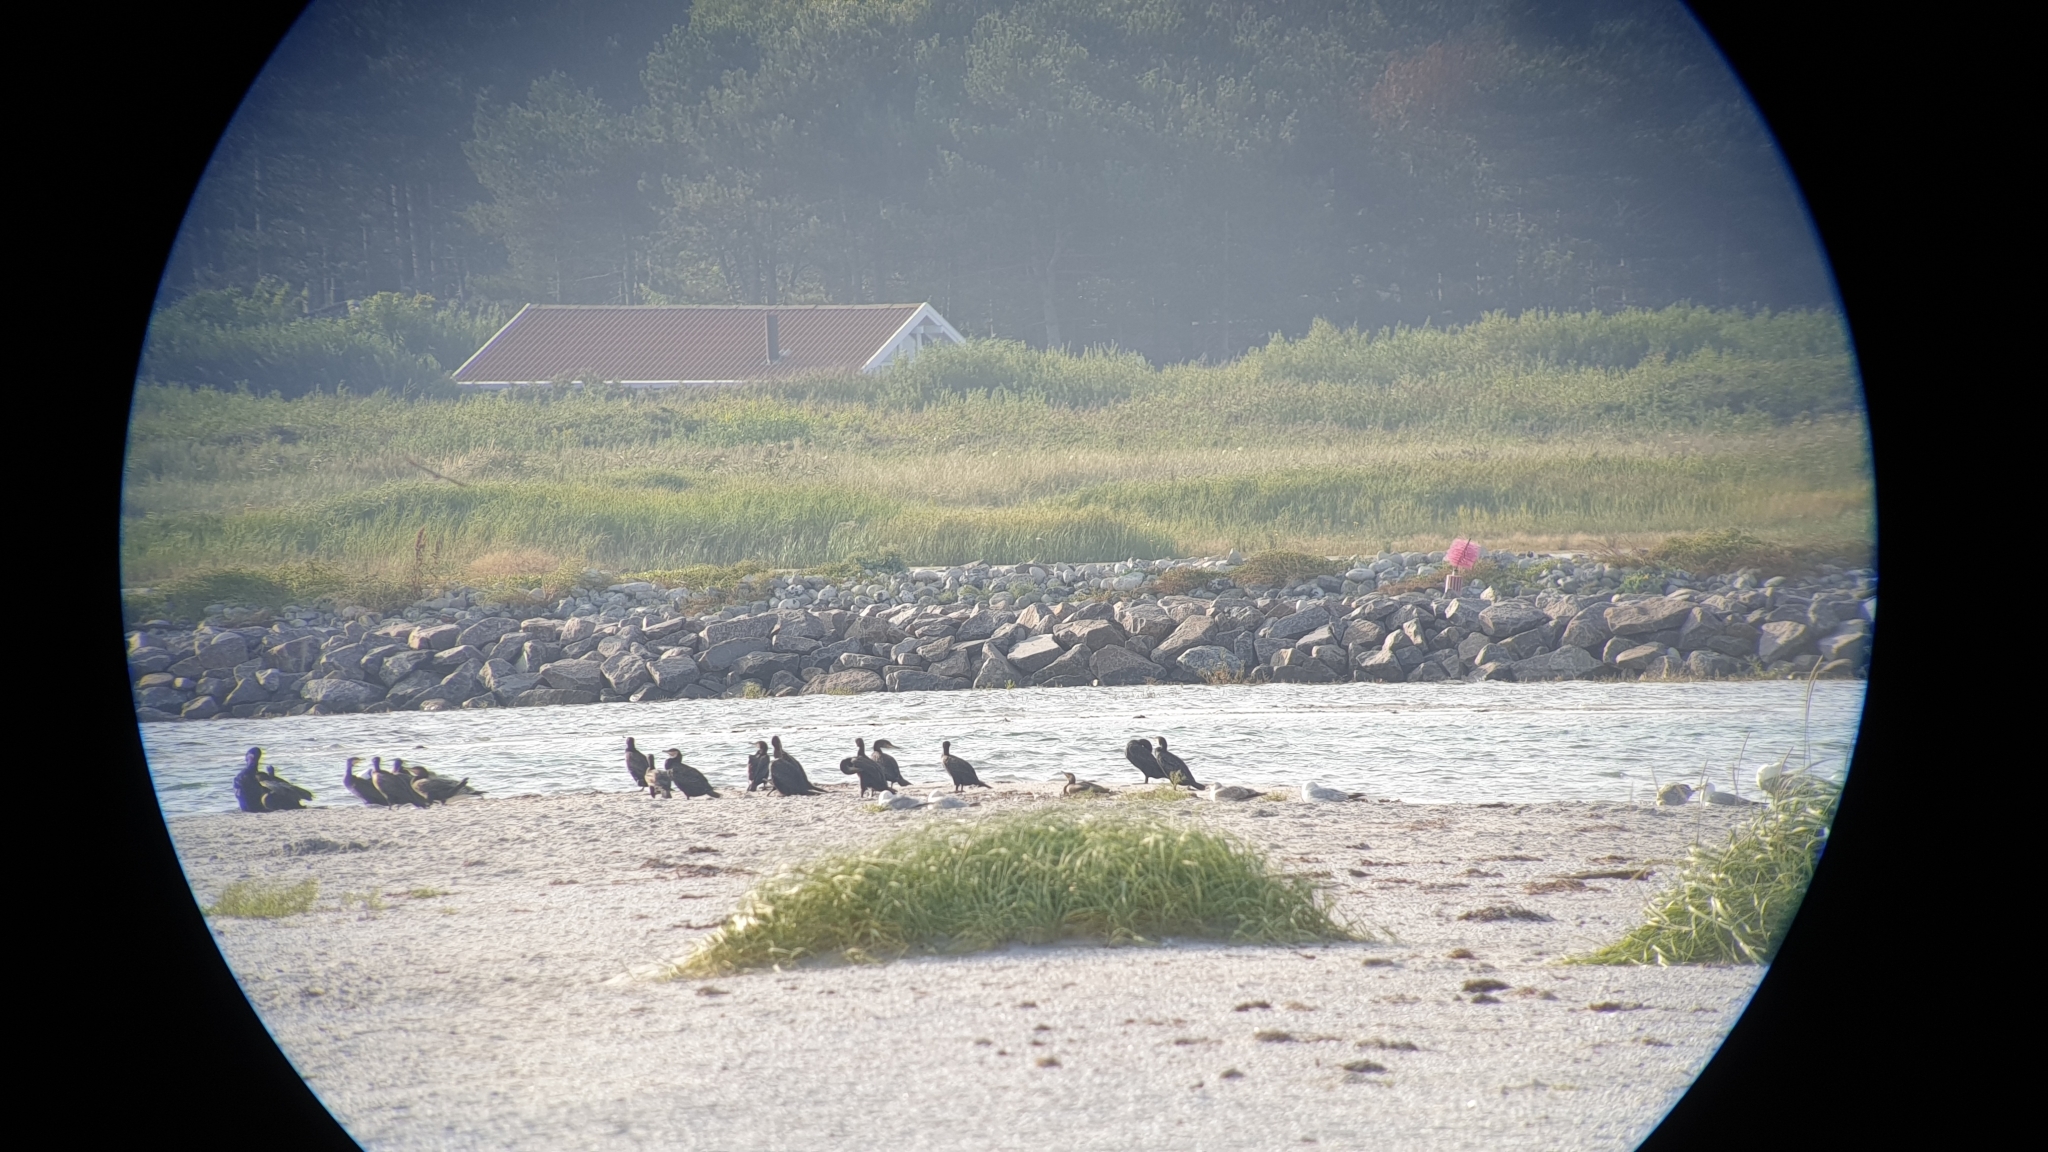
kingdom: Animalia
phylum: Chordata
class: Aves
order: Suliformes
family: Phalacrocoracidae
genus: Phalacrocorax
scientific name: Phalacrocorax carbo
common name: Great cormorant
